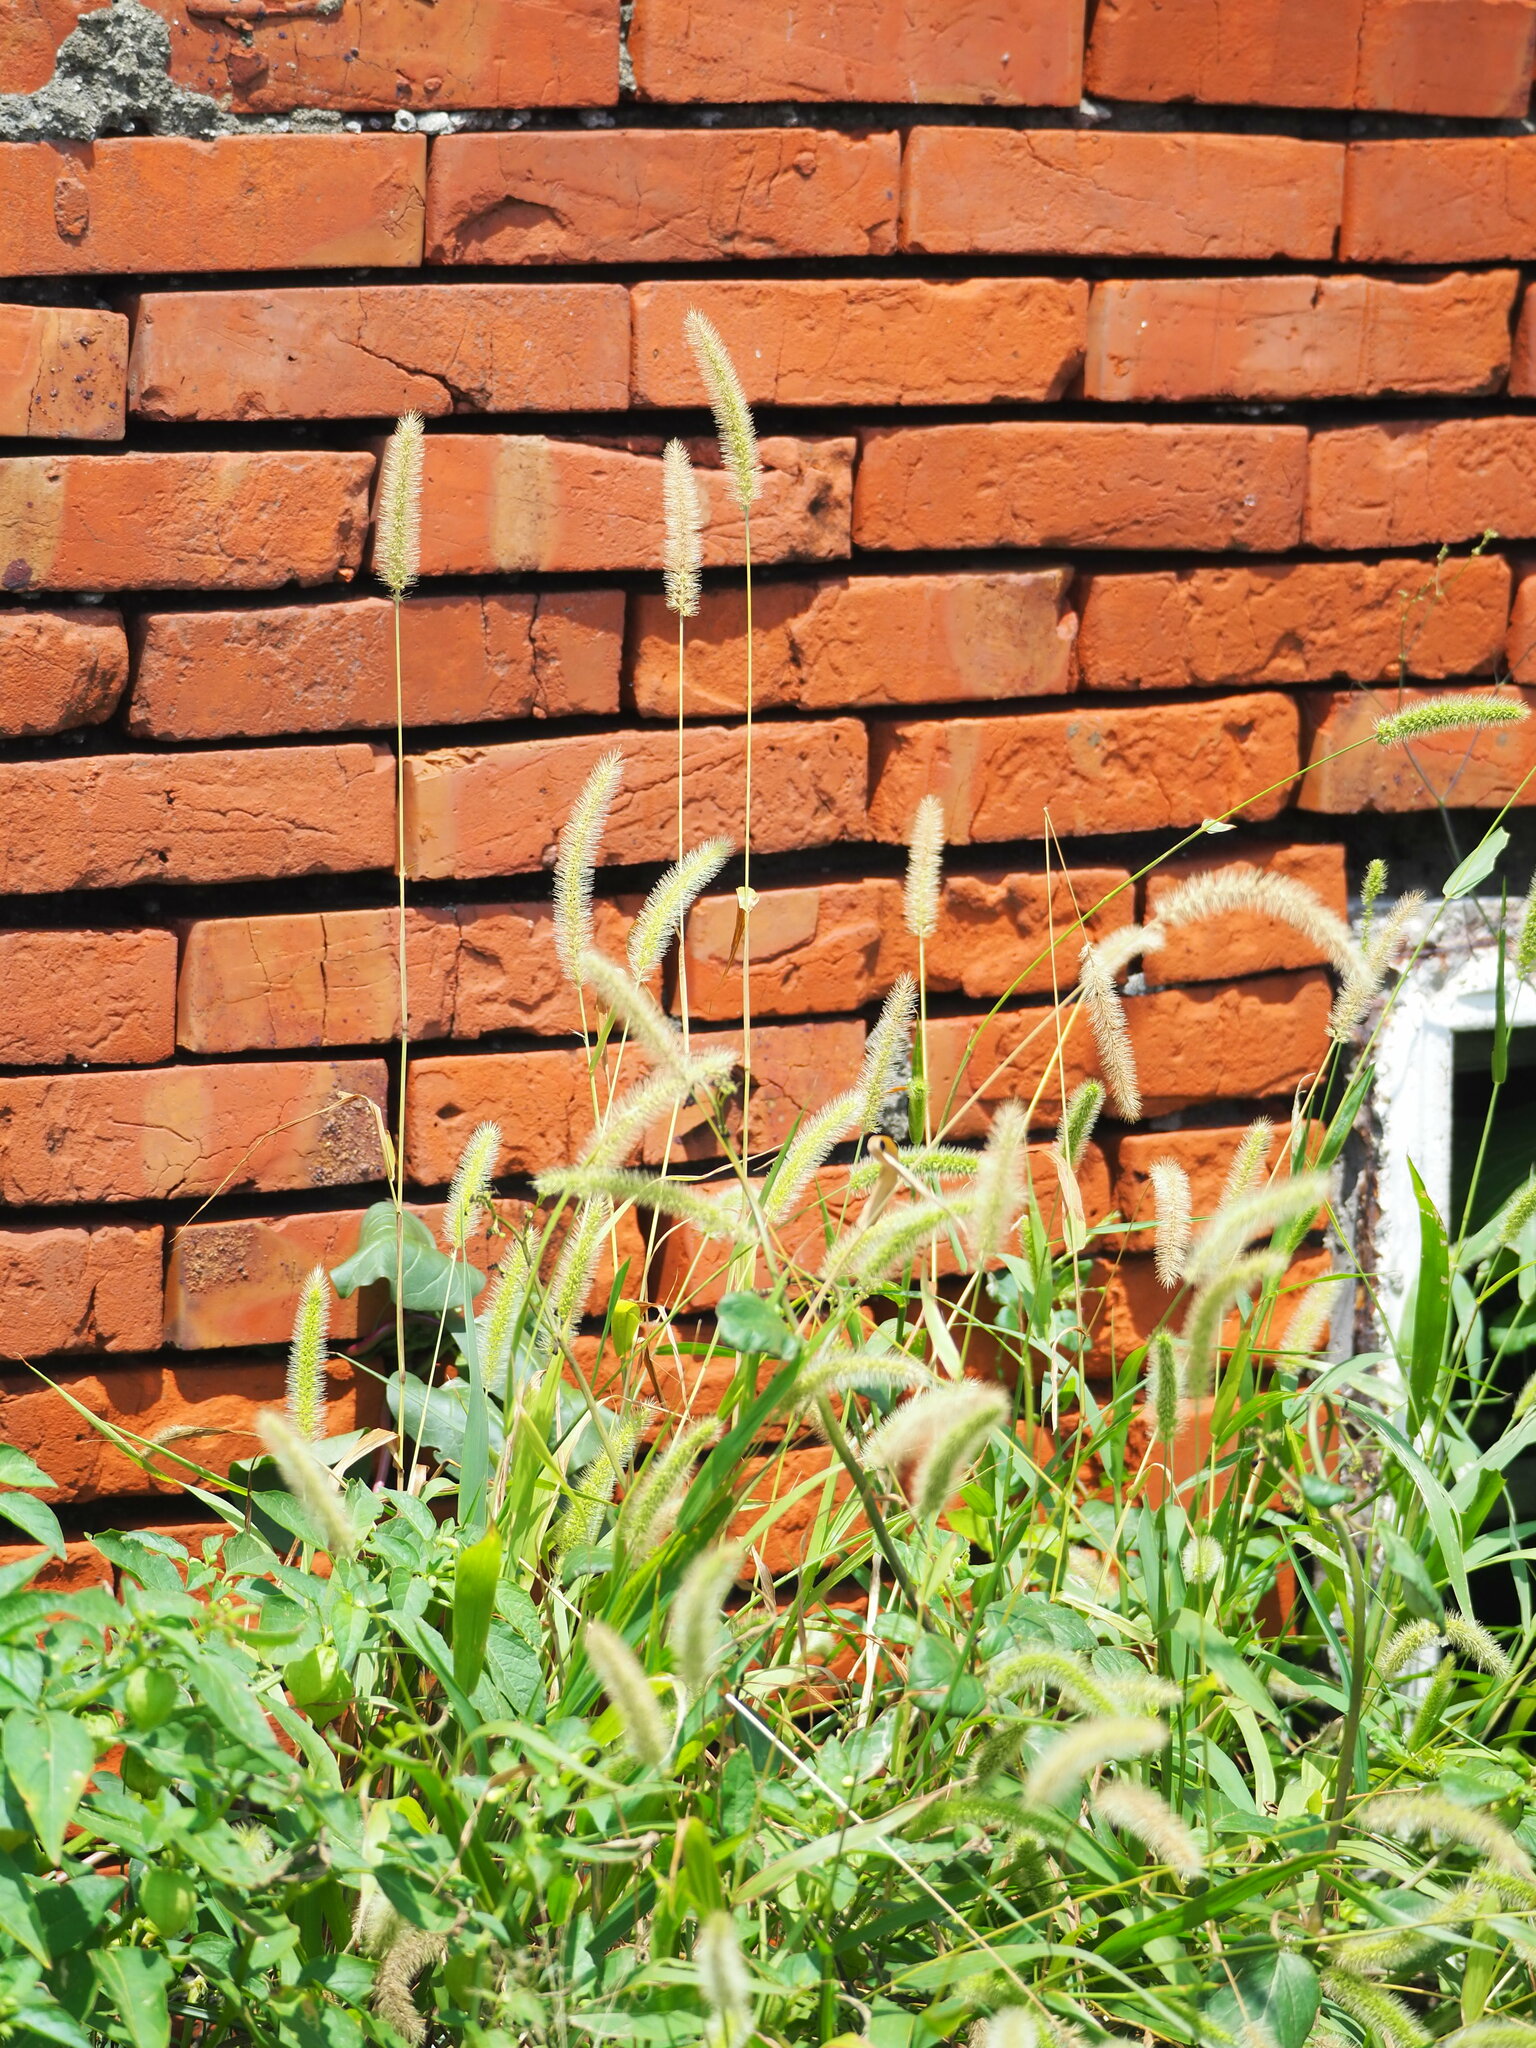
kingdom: Plantae
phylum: Tracheophyta
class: Liliopsida
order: Poales
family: Poaceae
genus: Setaria
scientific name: Setaria verticillata
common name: Hooked bristlegrass
